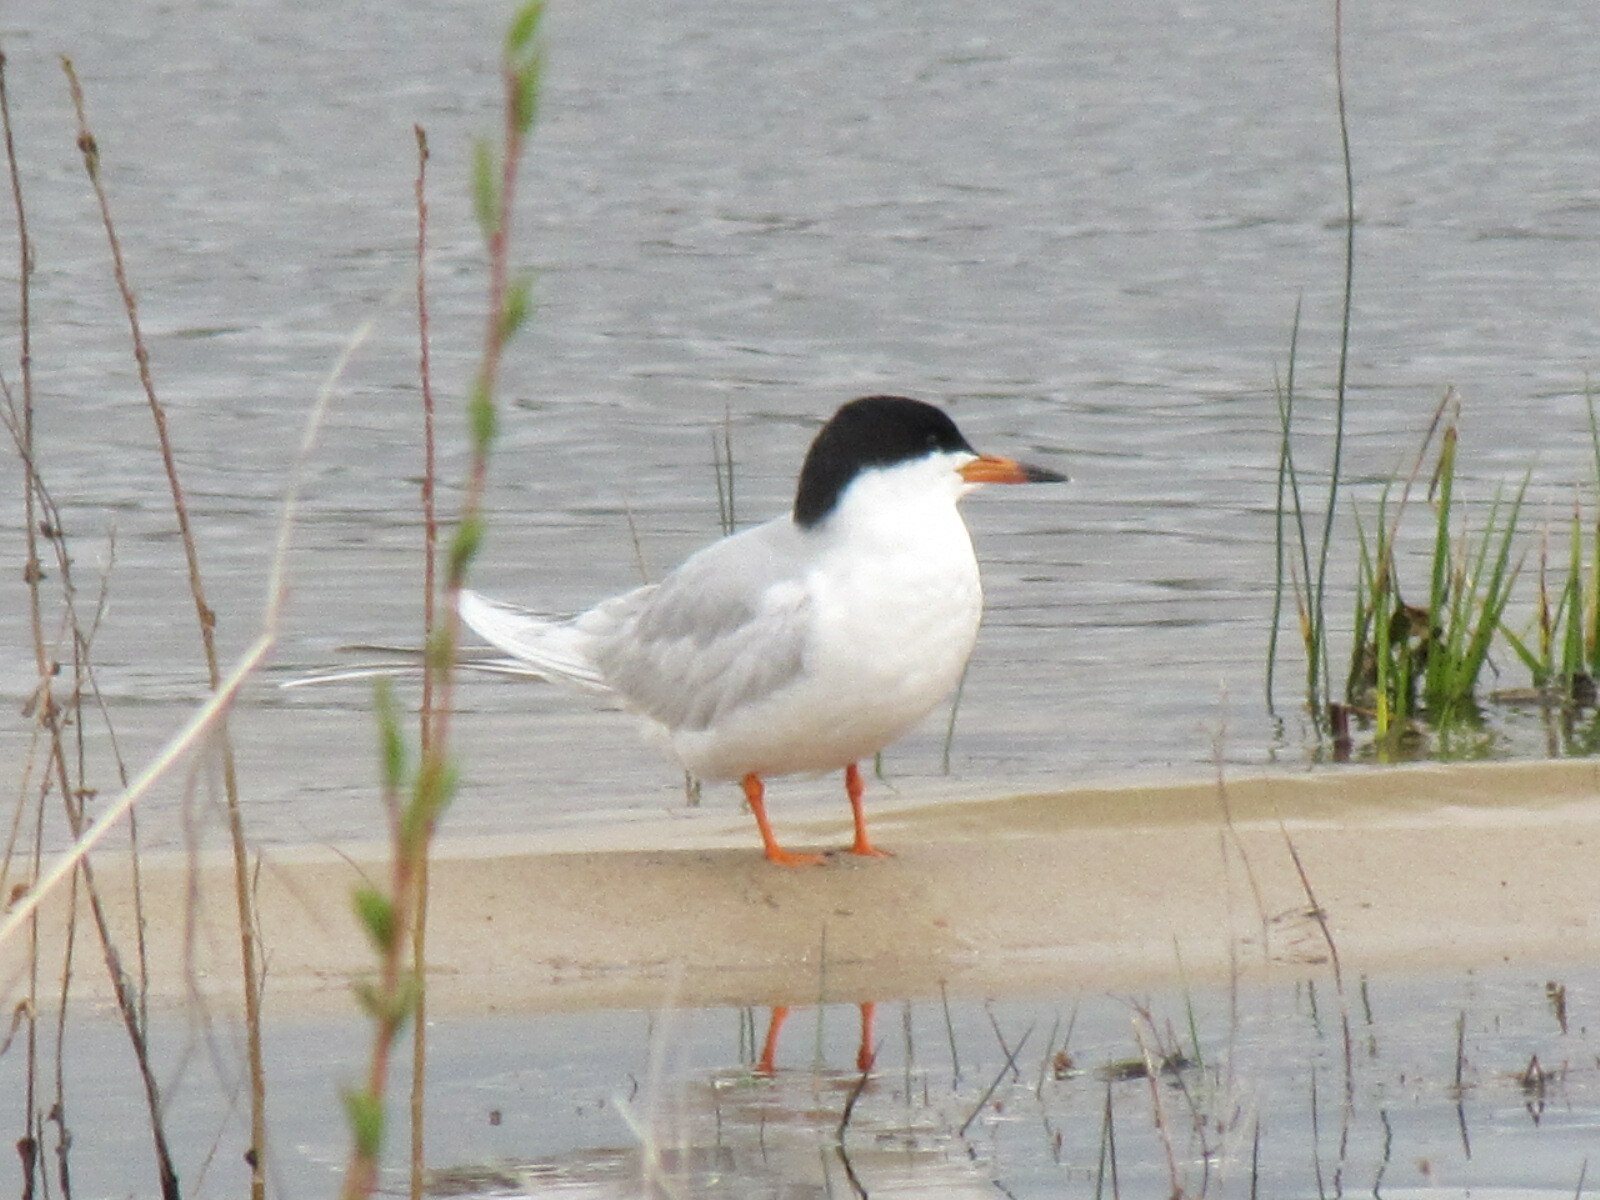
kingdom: Animalia
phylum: Chordata
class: Aves
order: Charadriiformes
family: Laridae
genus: Sterna
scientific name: Sterna forsteri
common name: Forster's tern
